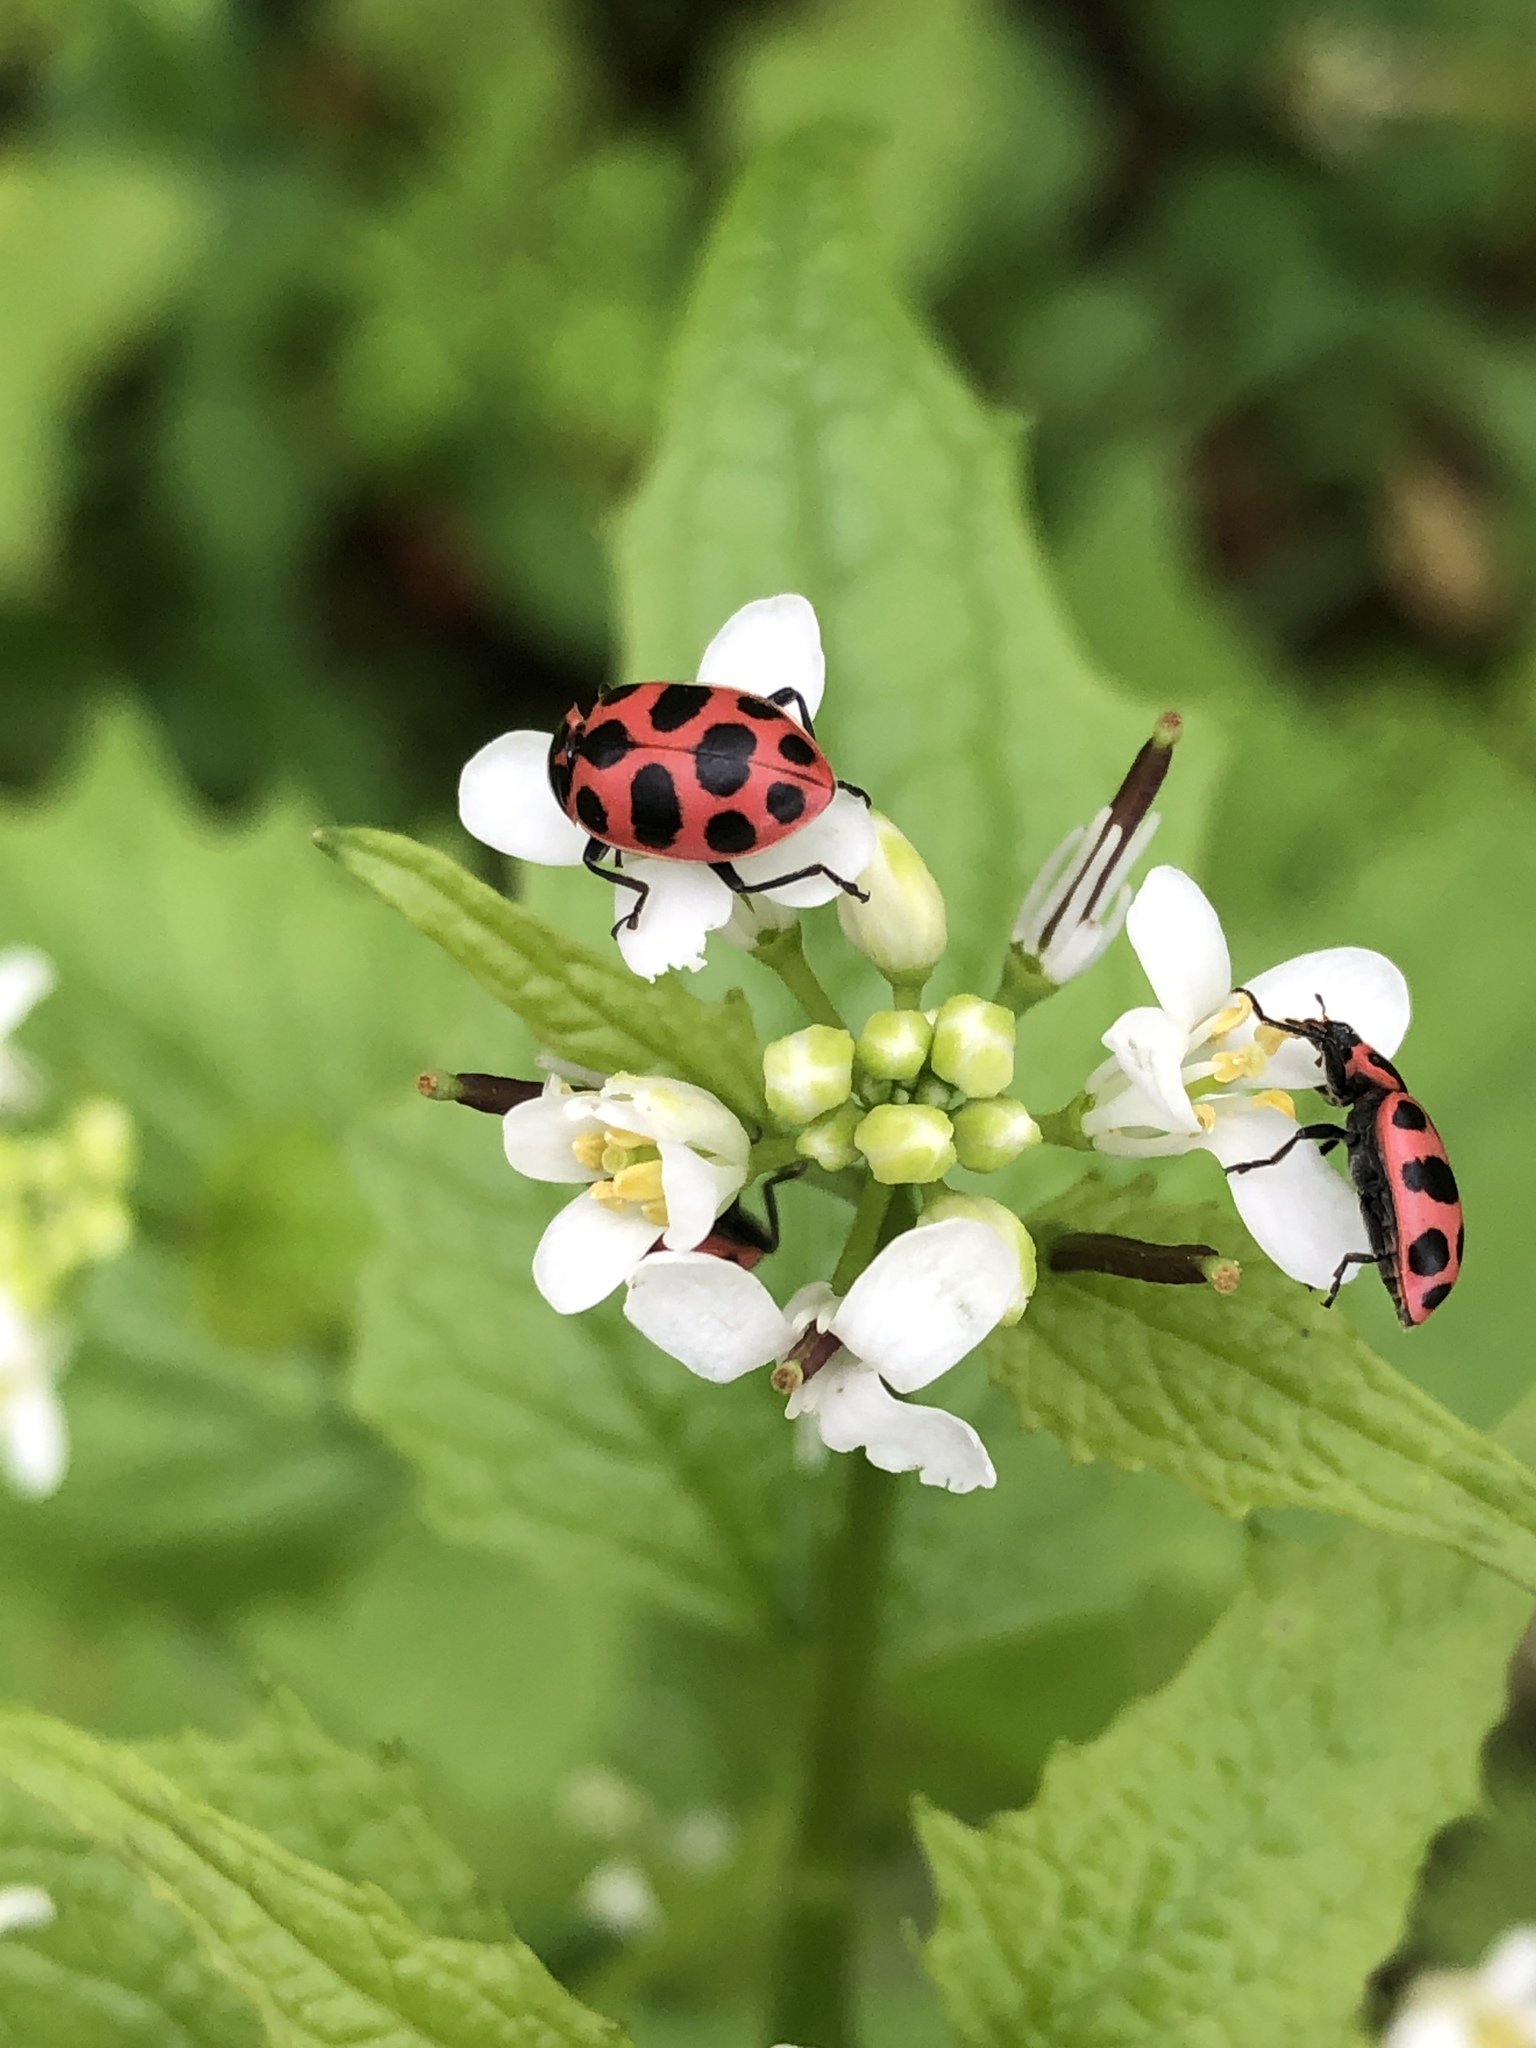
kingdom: Animalia
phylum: Arthropoda
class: Insecta
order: Coleoptera
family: Coccinellidae
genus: Coleomegilla
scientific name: Coleomegilla maculata
